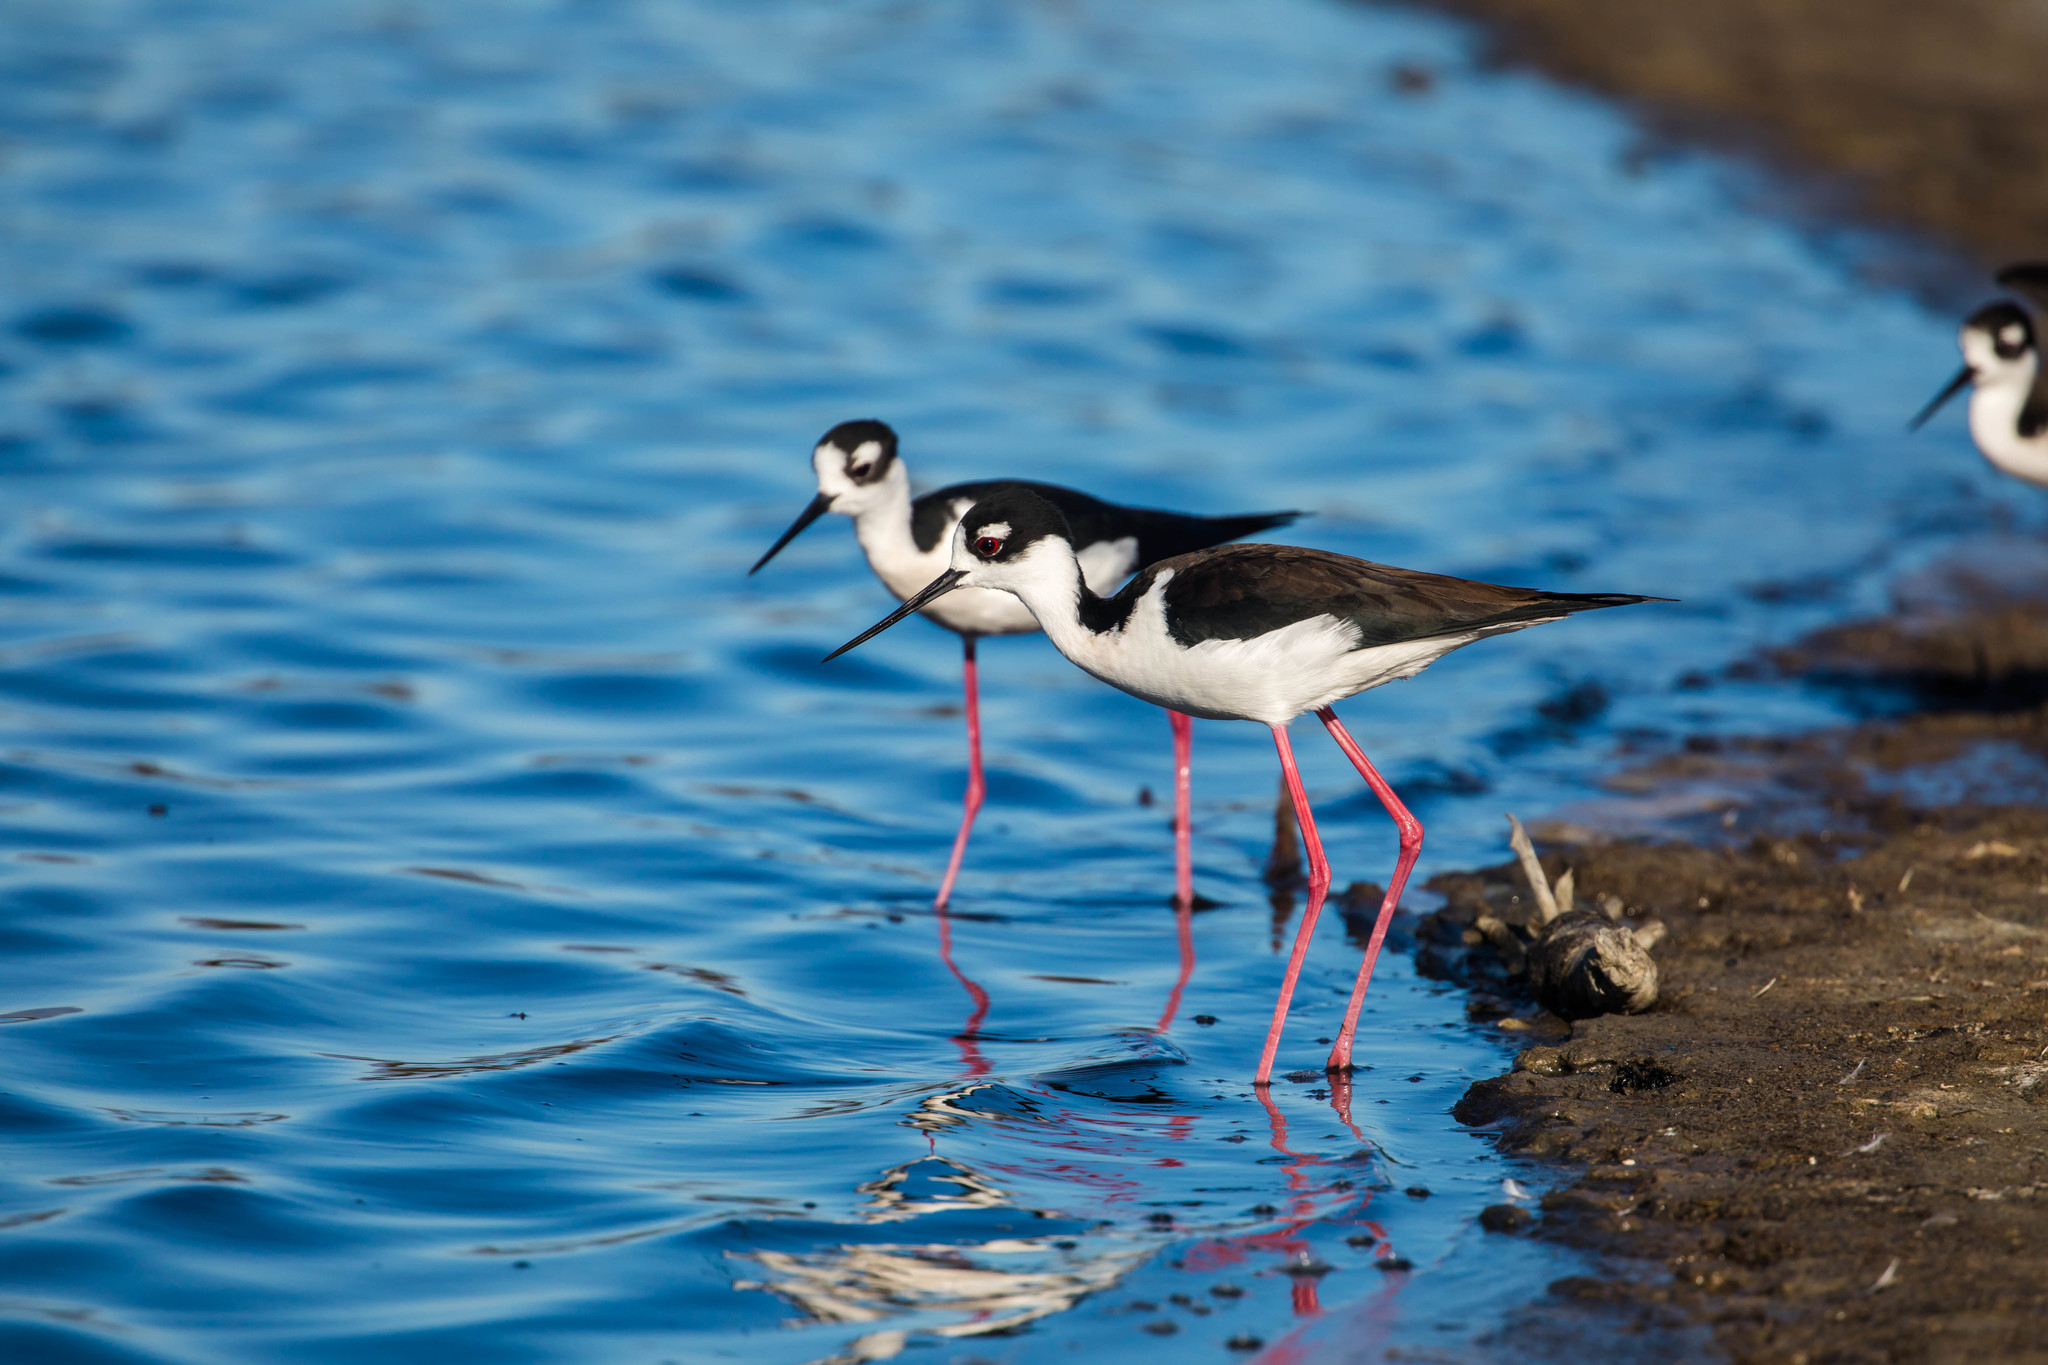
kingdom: Animalia
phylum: Chordata
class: Aves
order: Charadriiformes
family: Recurvirostridae
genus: Himantopus
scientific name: Himantopus mexicanus
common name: Black-necked stilt
